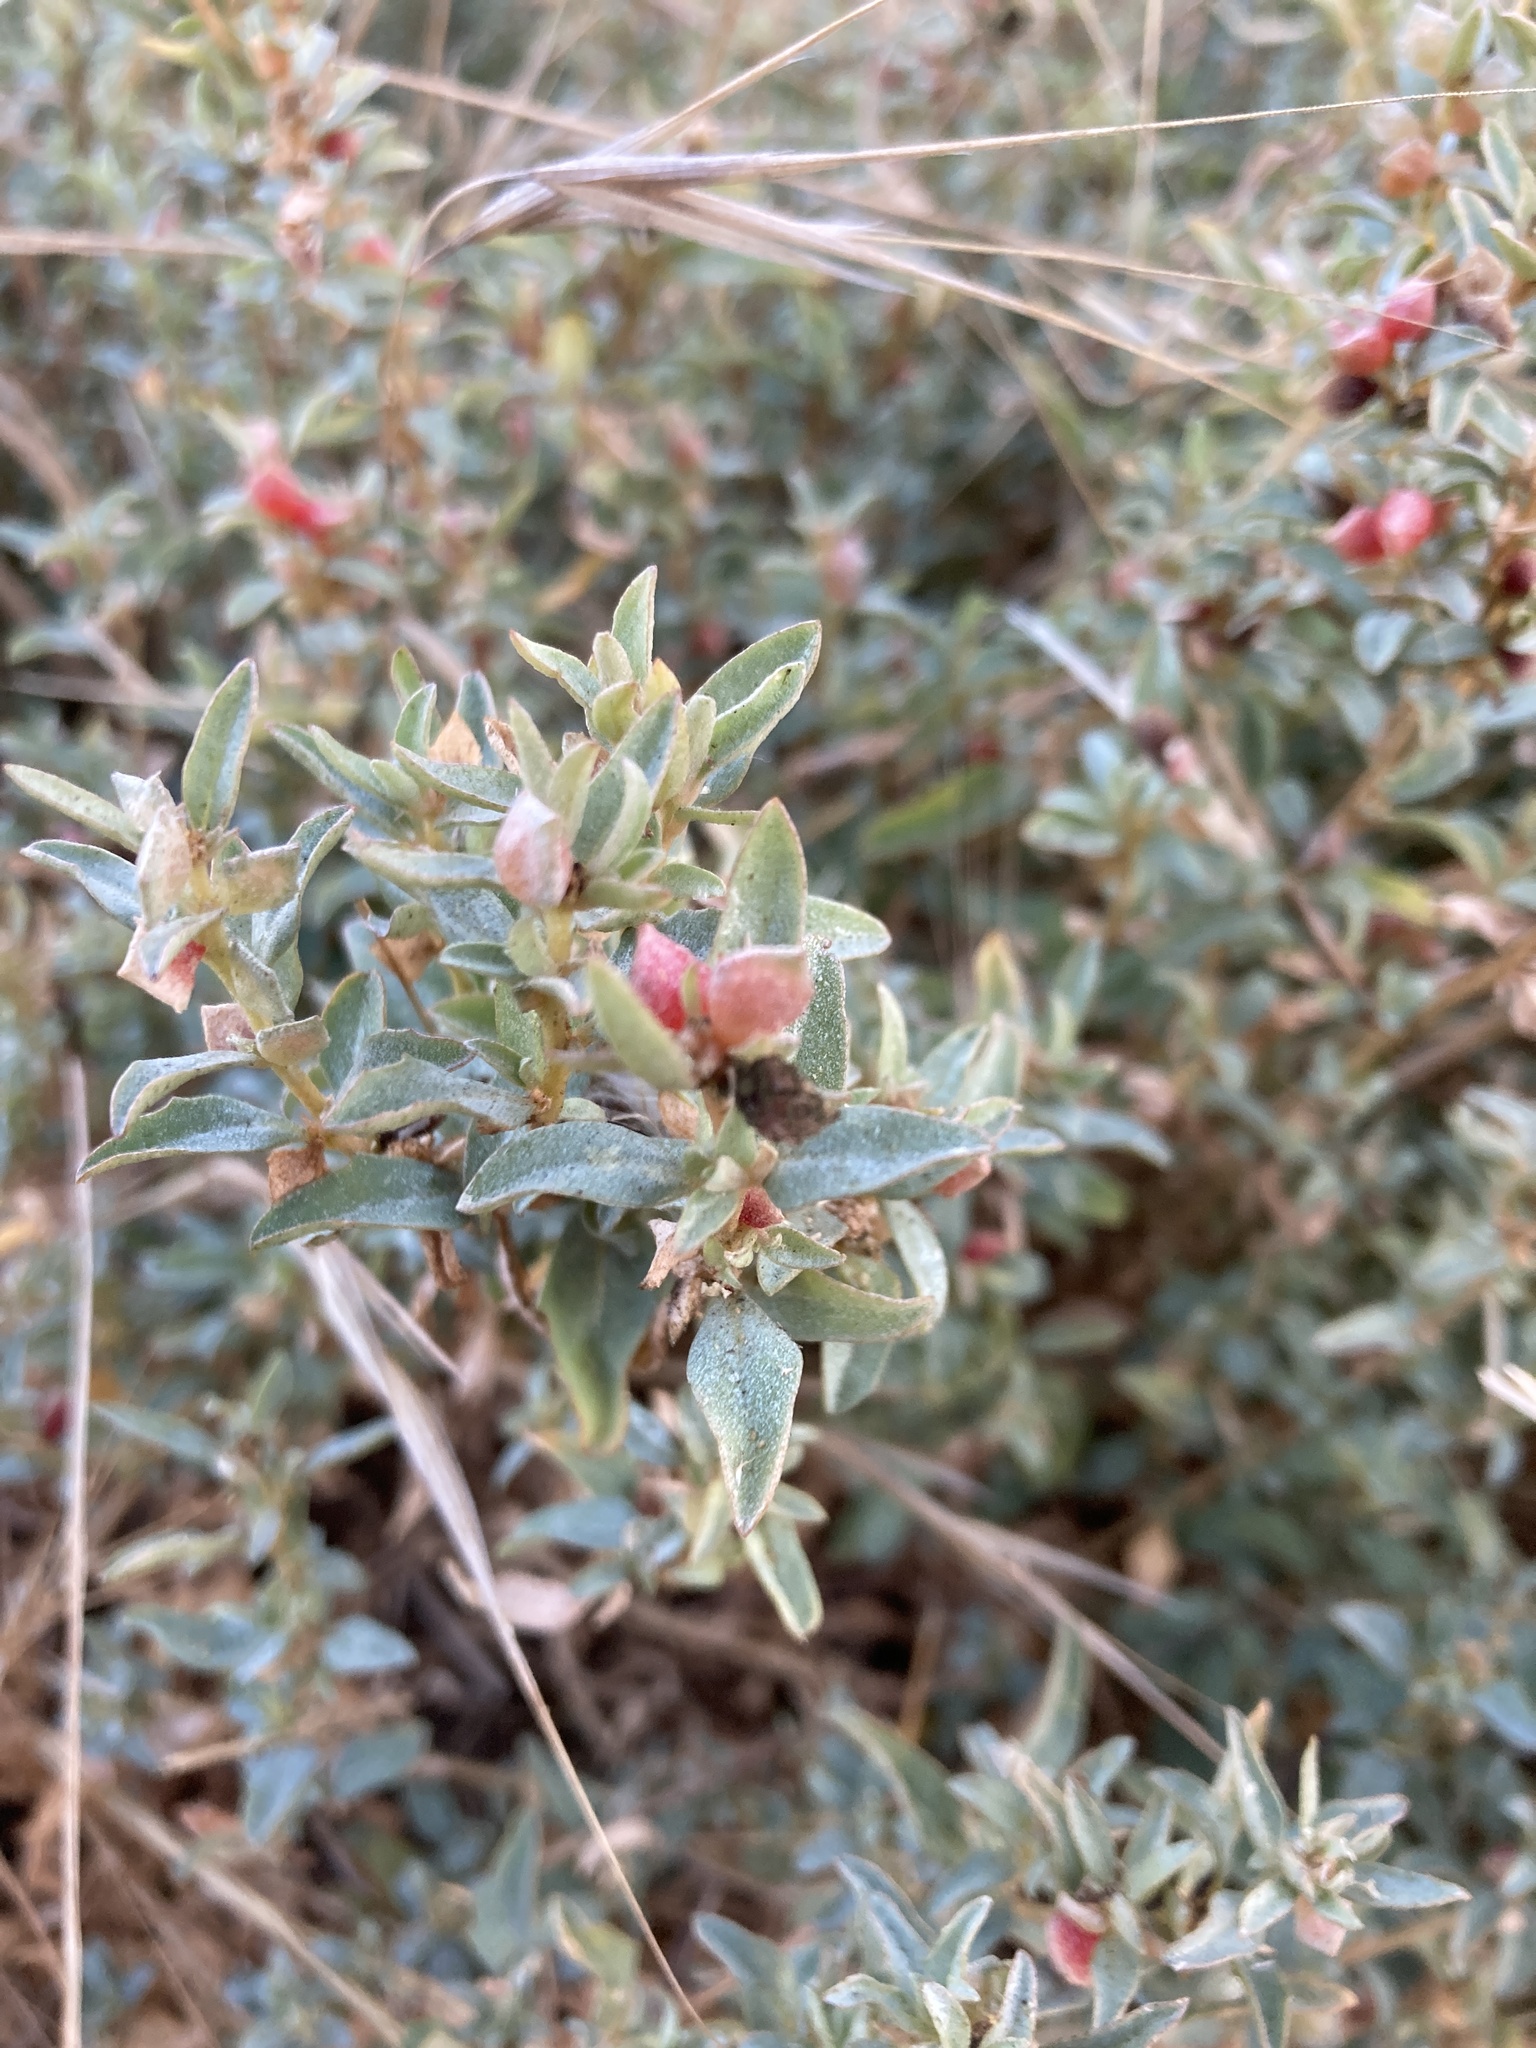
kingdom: Plantae
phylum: Tracheophyta
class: Magnoliopsida
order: Caryophyllales
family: Amaranthaceae
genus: Atriplex
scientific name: Atriplex semibaccata
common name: Australian saltbush
